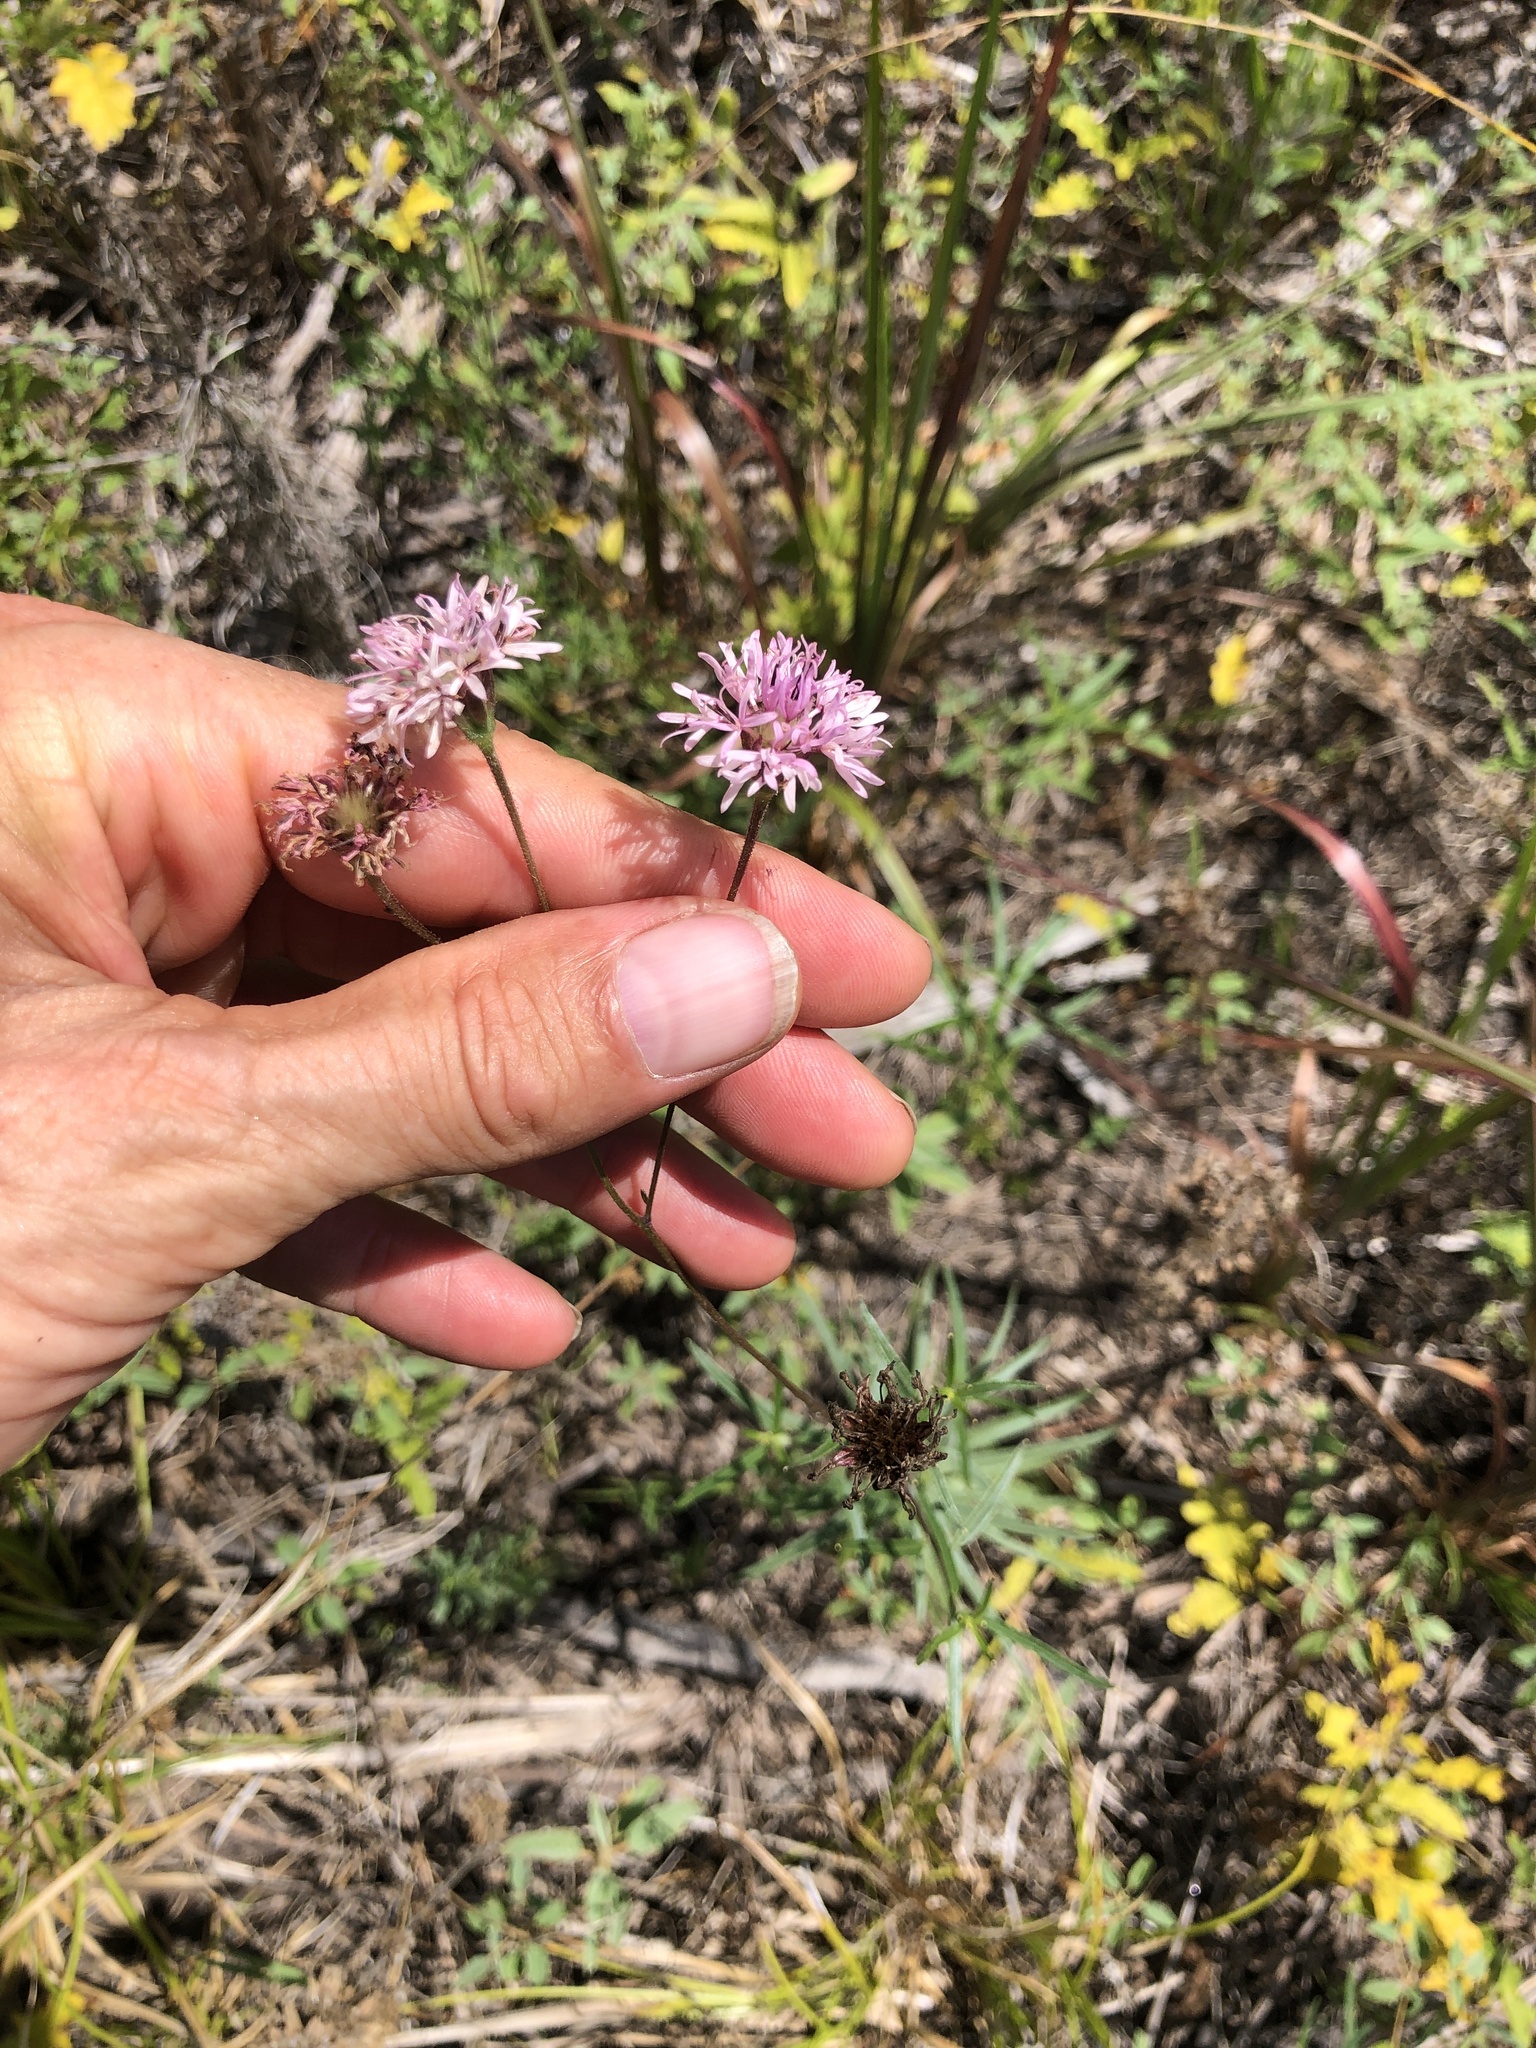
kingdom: Plantae
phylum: Tracheophyta
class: Magnoliopsida
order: Asterales
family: Asteraceae
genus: Palafoxia
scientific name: Palafoxia rosea
